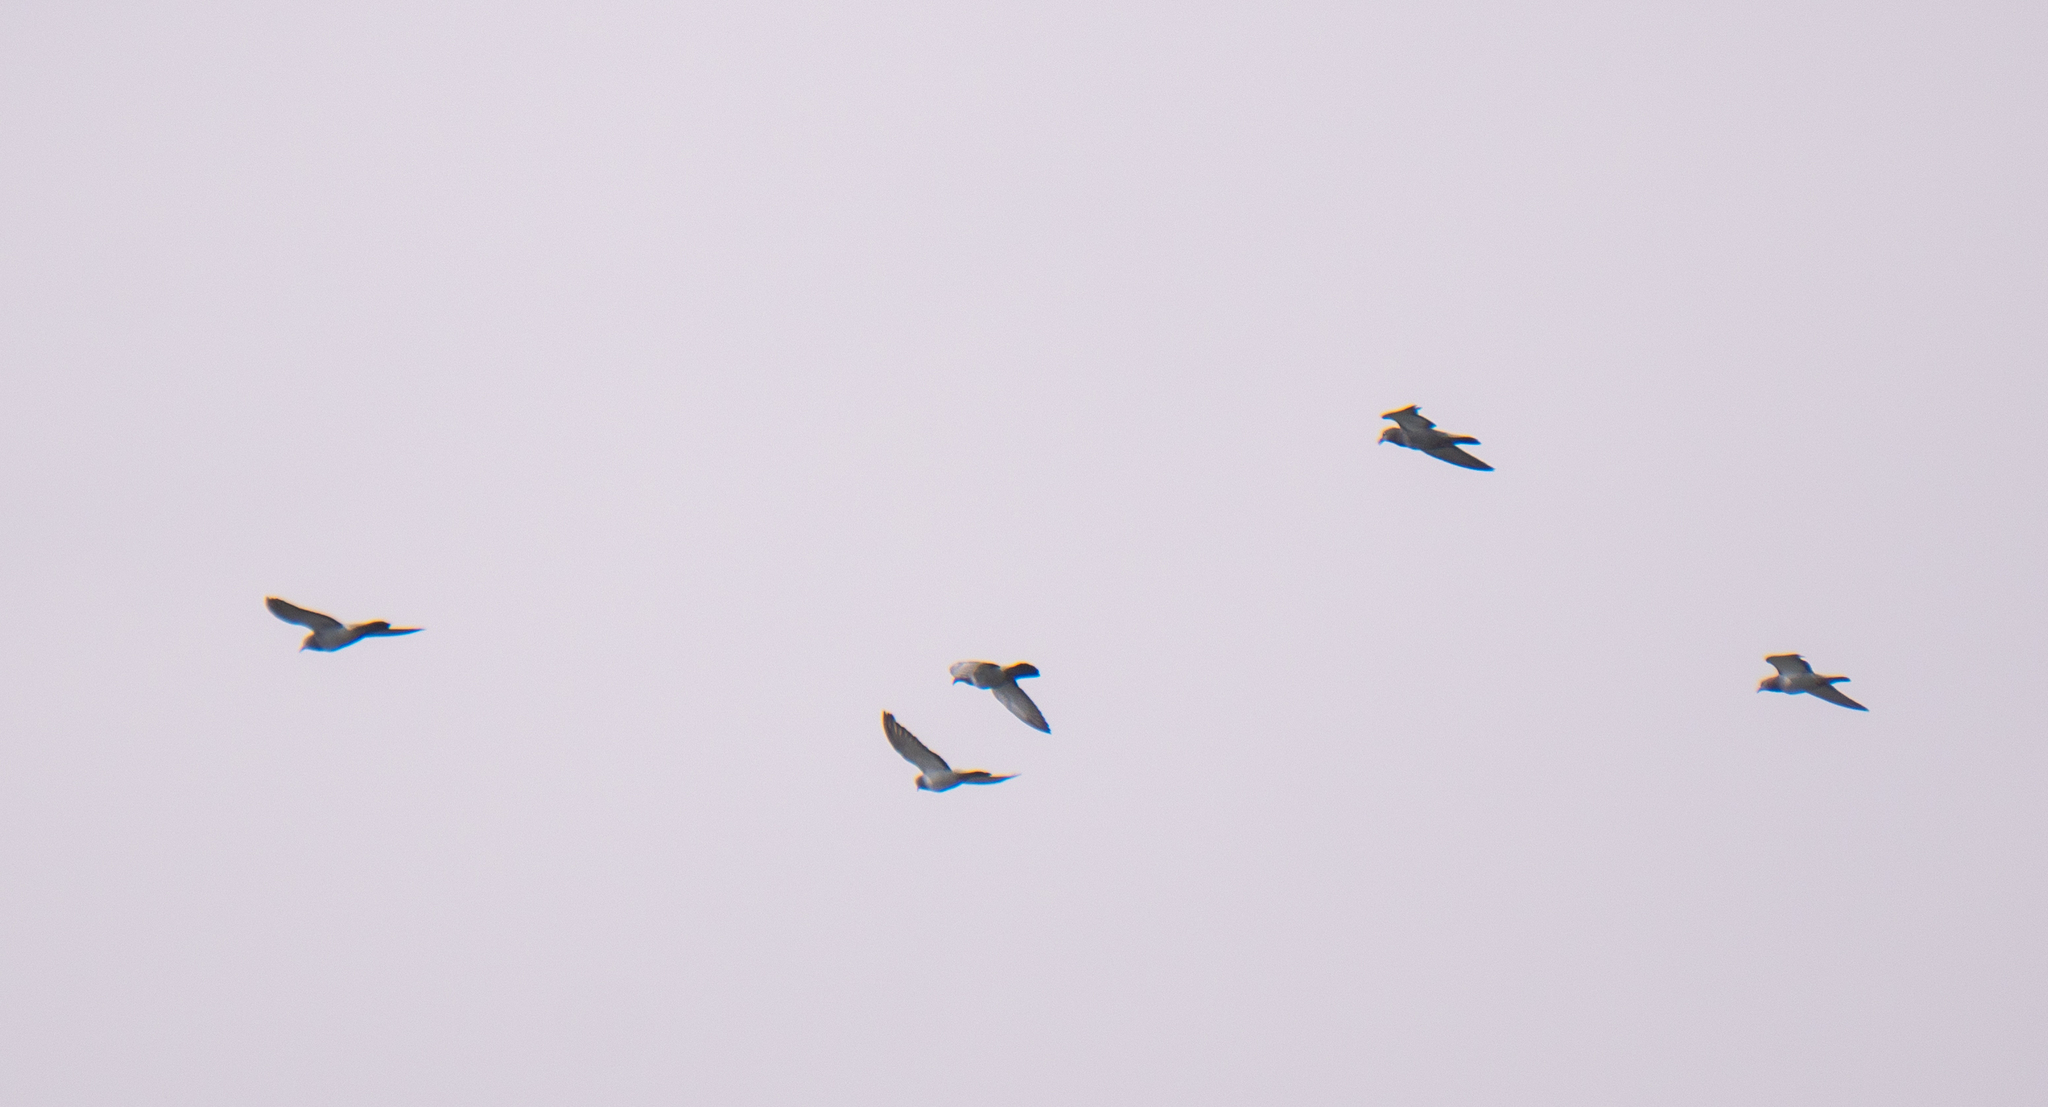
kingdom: Animalia
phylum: Chordata
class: Aves
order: Columbiformes
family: Columbidae
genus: Columba
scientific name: Columba livia
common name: Rock pigeon
